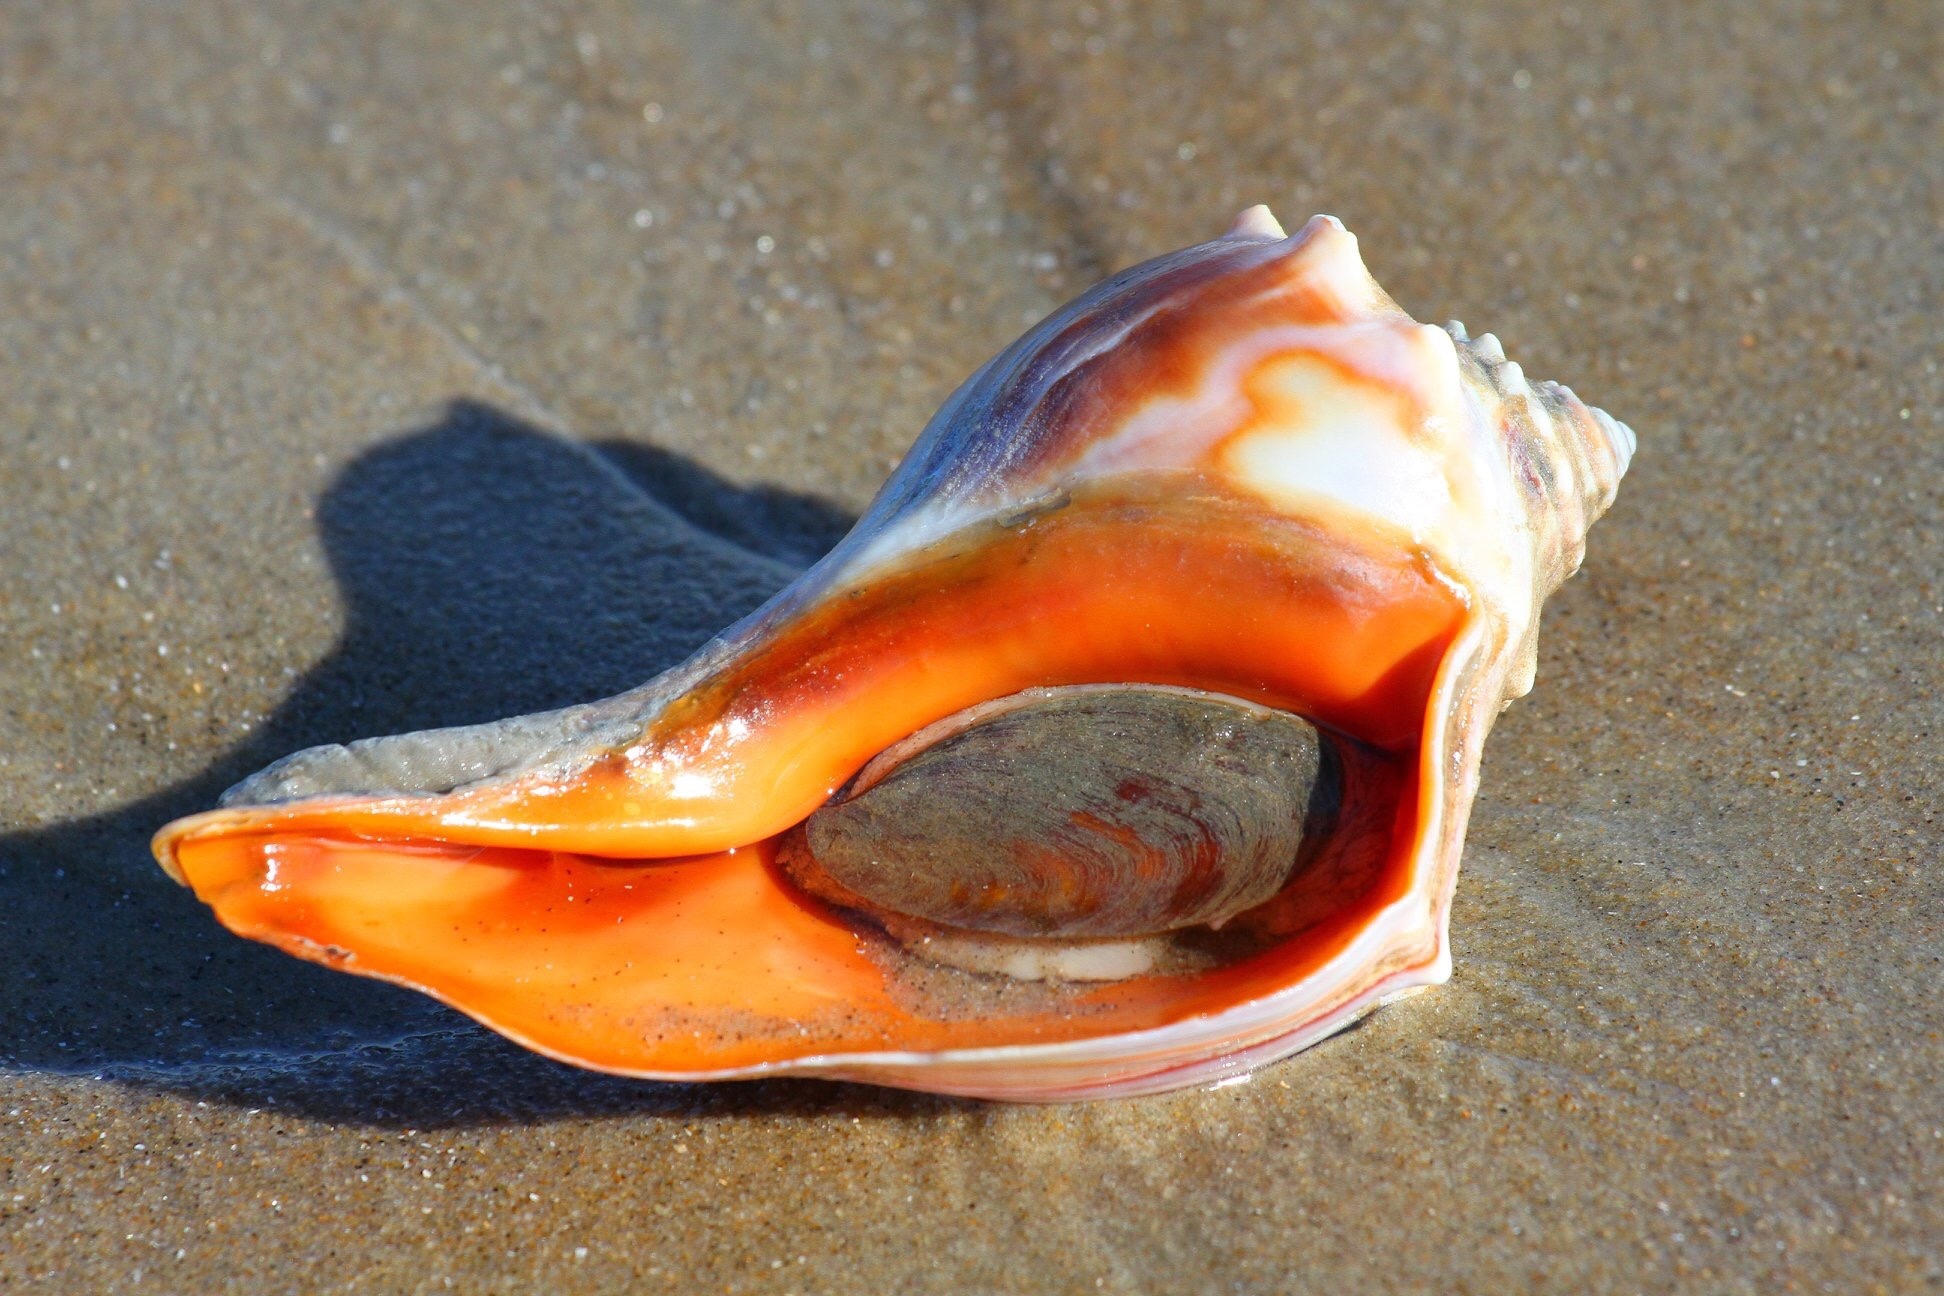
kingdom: Animalia
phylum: Mollusca
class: Gastropoda
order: Neogastropoda
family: Busyconidae
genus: Busycon
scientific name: Busycon carica
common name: Knobbed whelk
